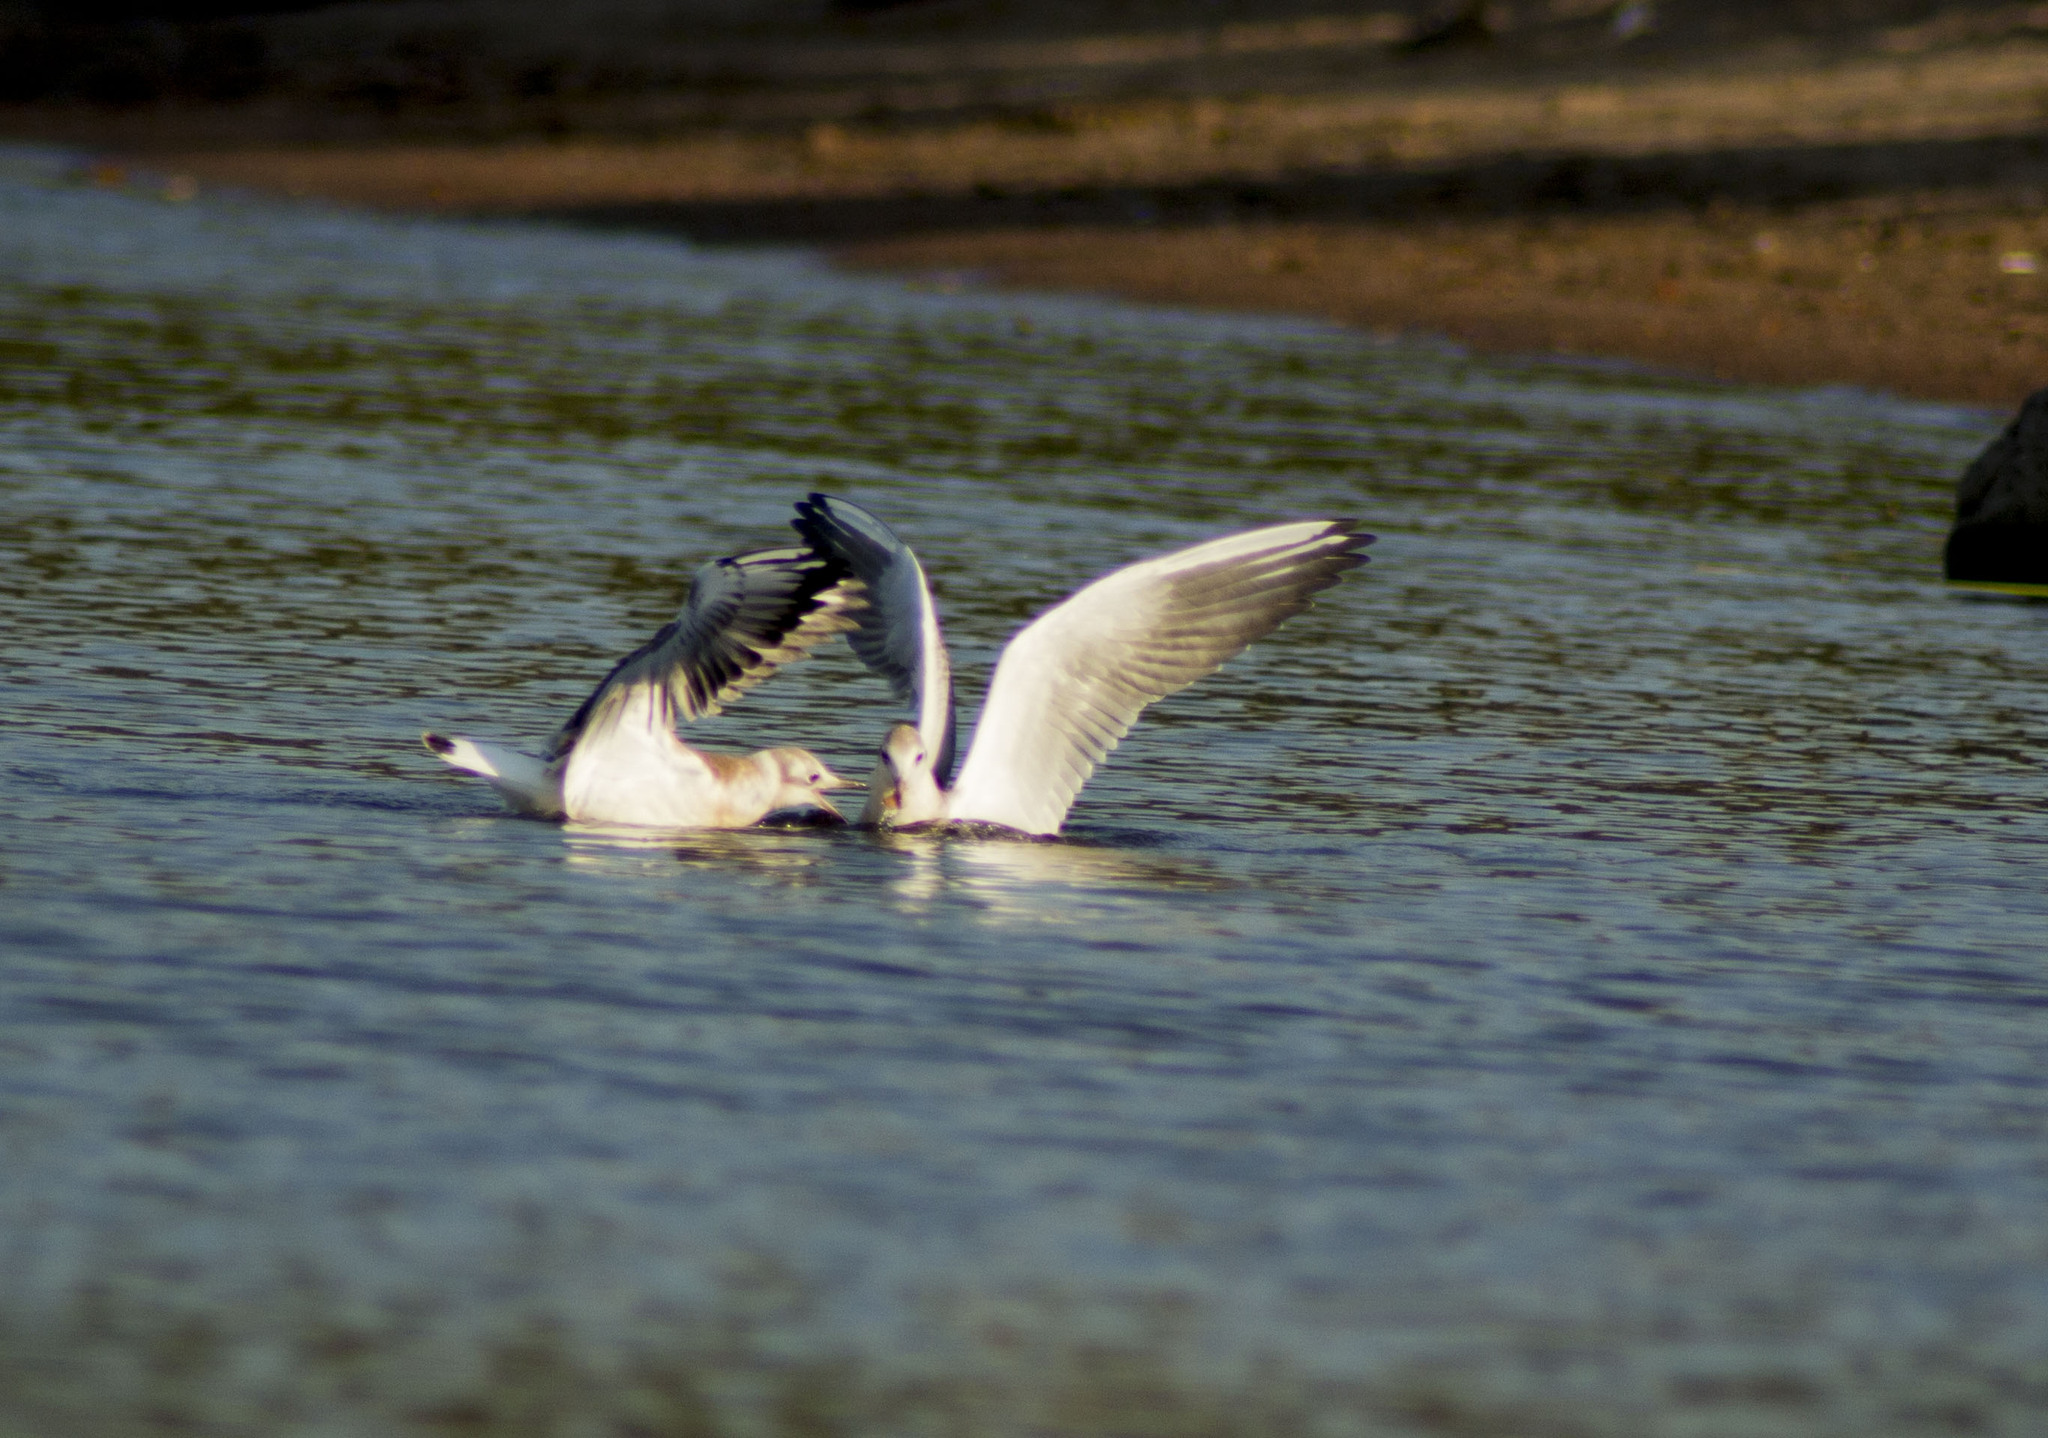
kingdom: Animalia
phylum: Chordata
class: Aves
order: Charadriiformes
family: Laridae
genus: Chroicocephalus
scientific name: Chroicocephalus ridibundus
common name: Black-headed gull
